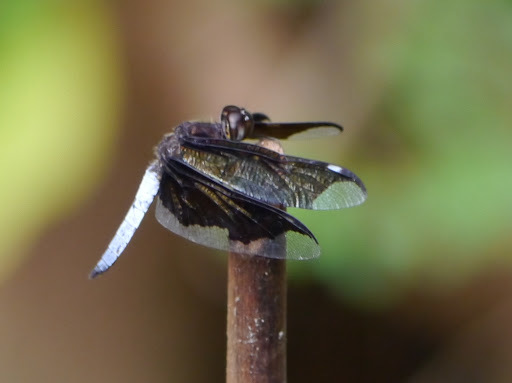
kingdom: Animalia
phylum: Arthropoda
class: Insecta
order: Odonata
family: Libellulidae
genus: Palpopleura
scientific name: Palpopleura lucia
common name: Lucia widow
